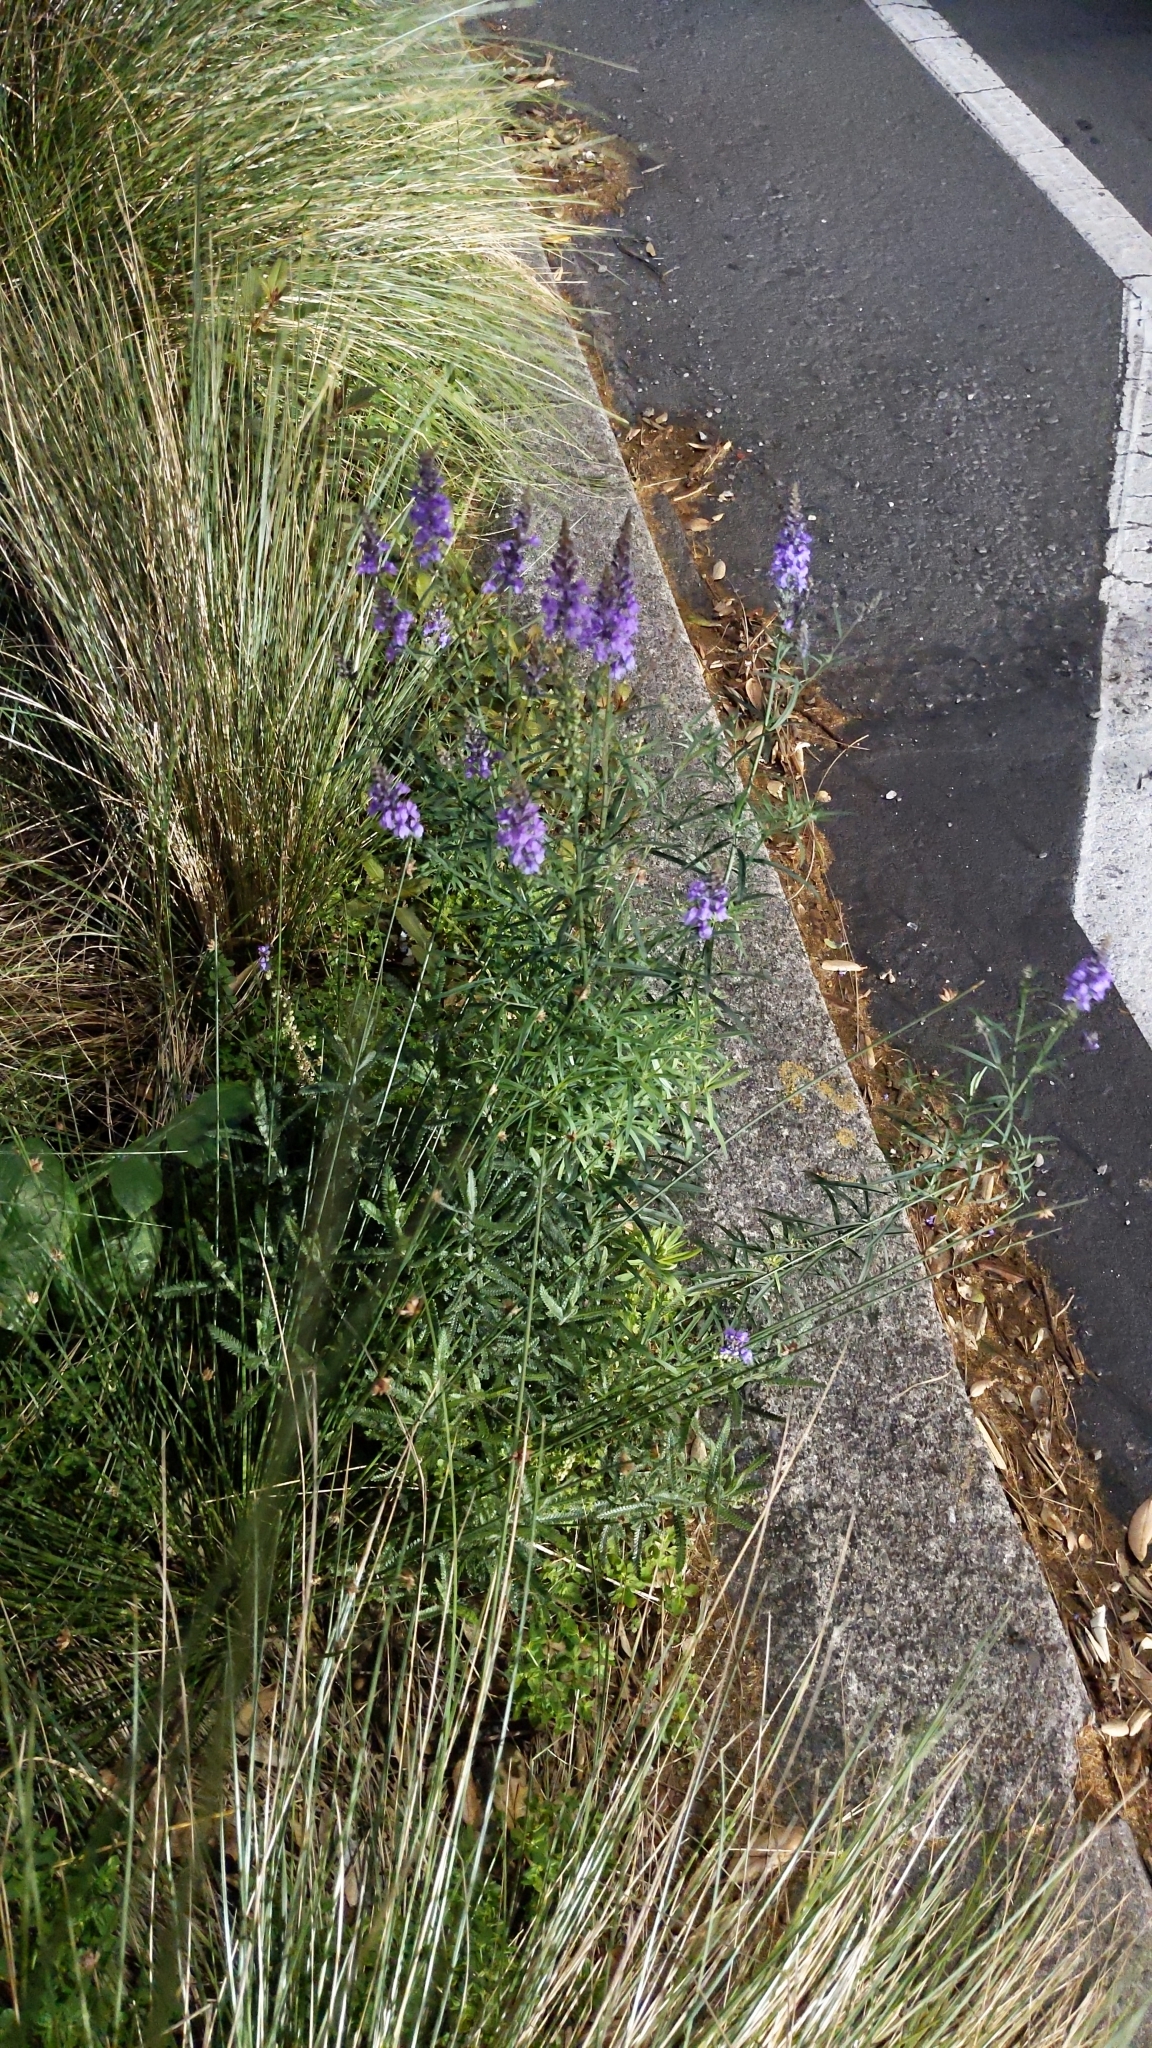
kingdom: Plantae
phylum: Tracheophyta
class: Magnoliopsida
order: Lamiales
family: Plantaginaceae
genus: Linaria
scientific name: Linaria purpurea
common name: Purple toadflax
